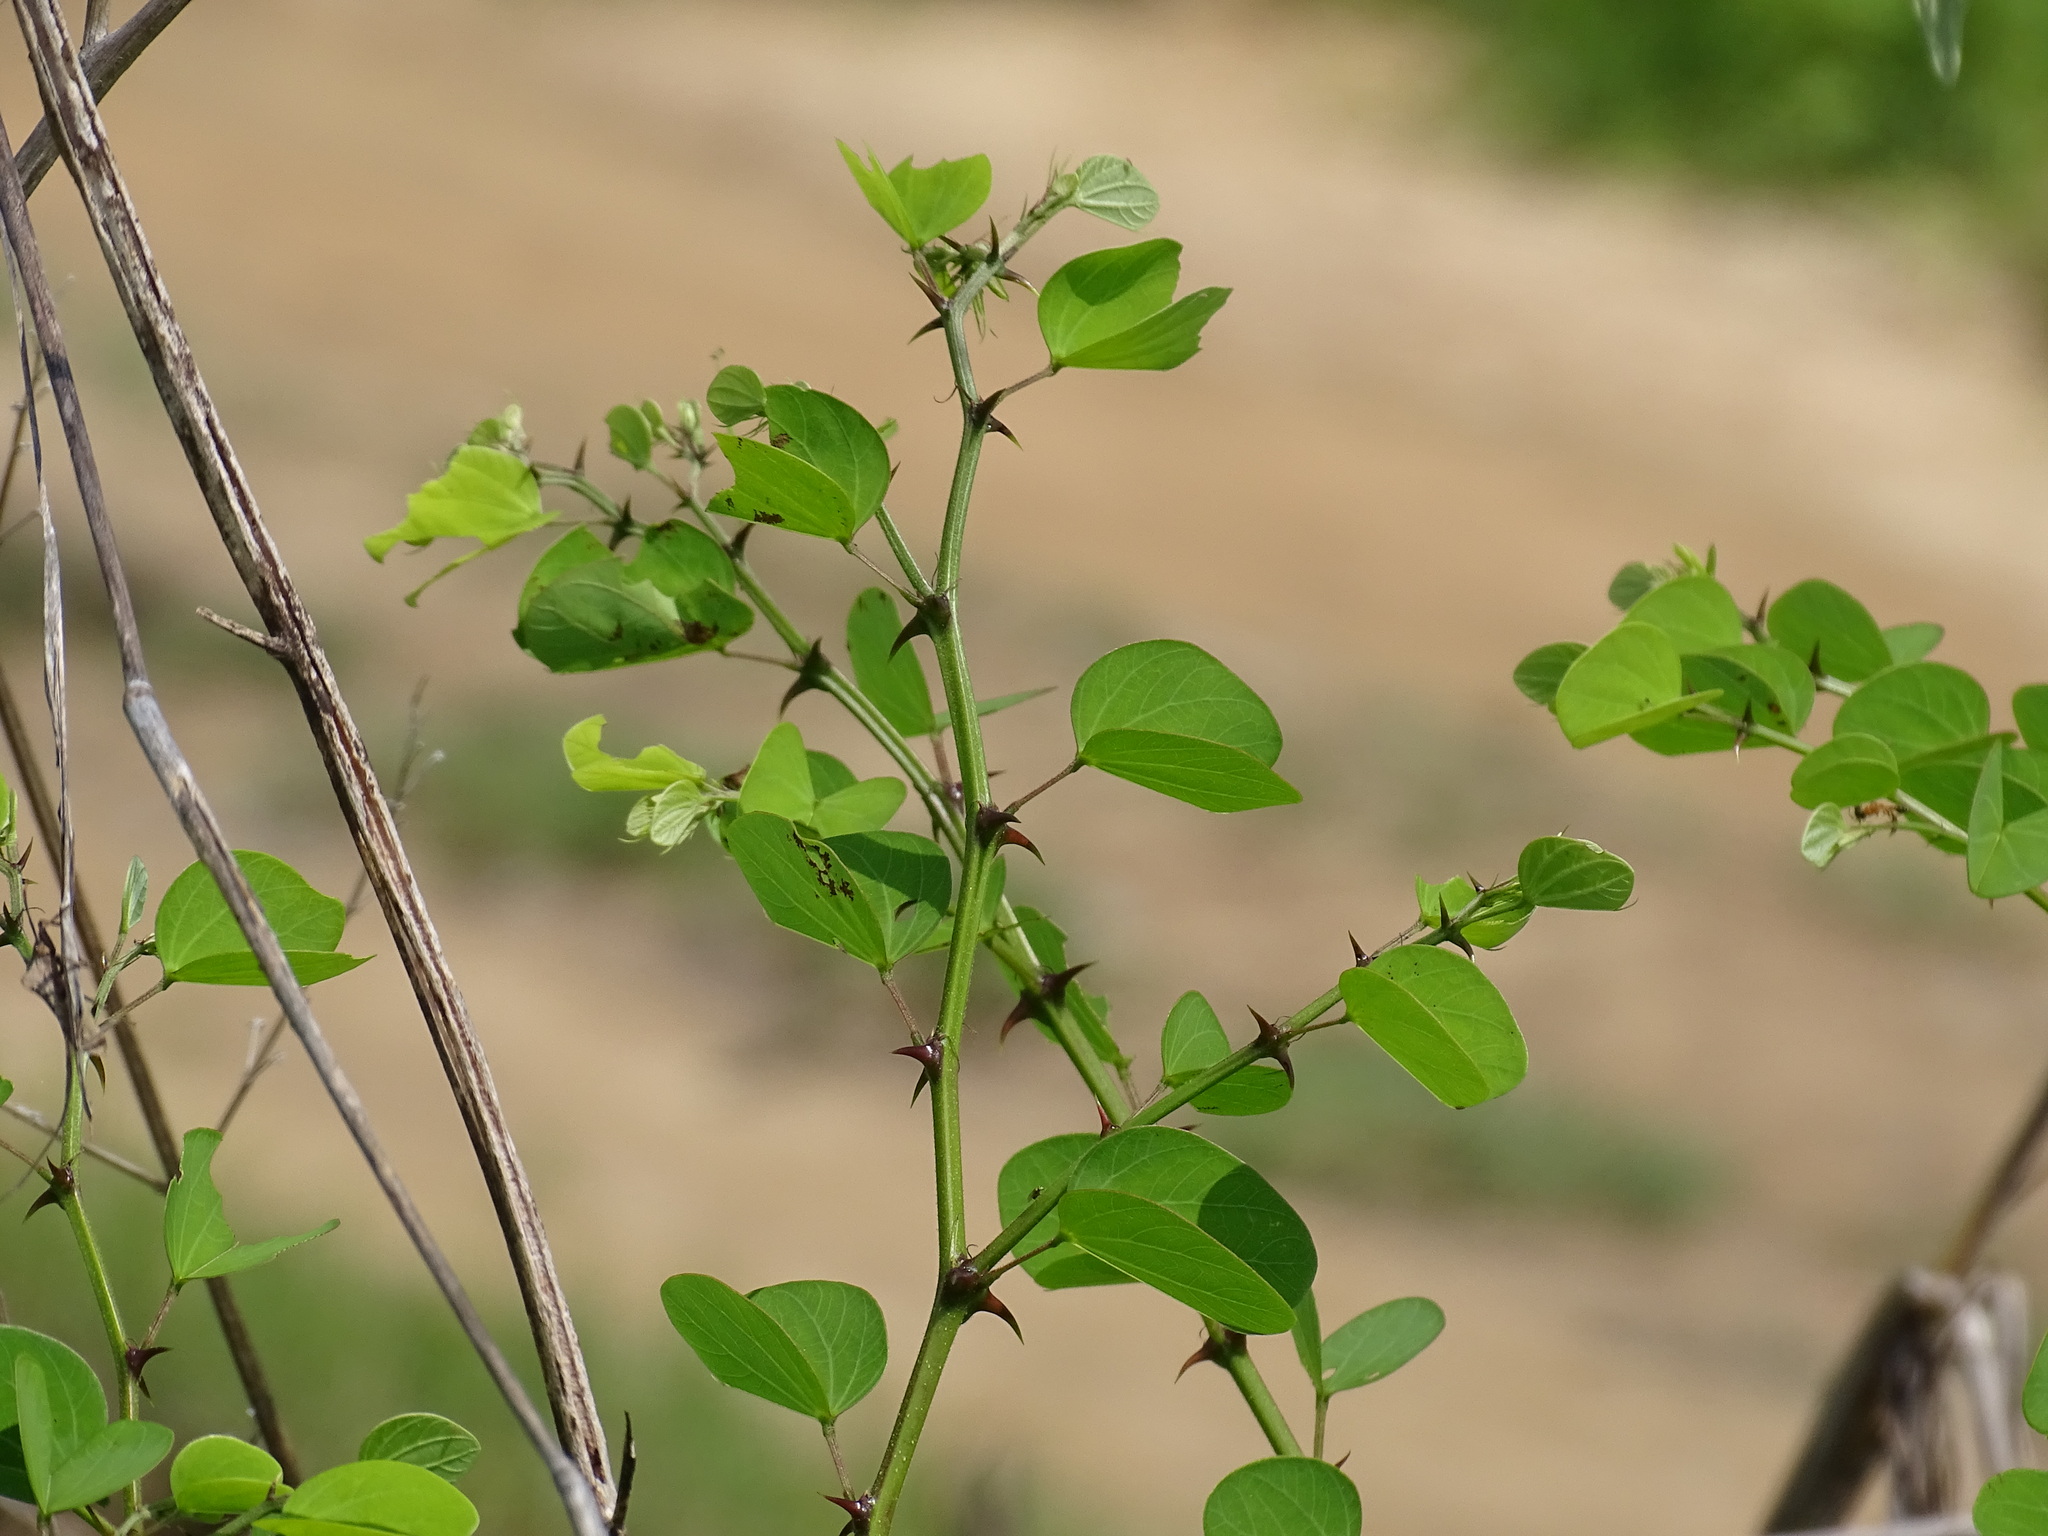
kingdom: Plantae
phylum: Tracheophyta
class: Magnoliopsida
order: Fabales
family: Fabaceae
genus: Bauhinia
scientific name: Bauhinia pauletia
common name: Railway-fence bauhinia
